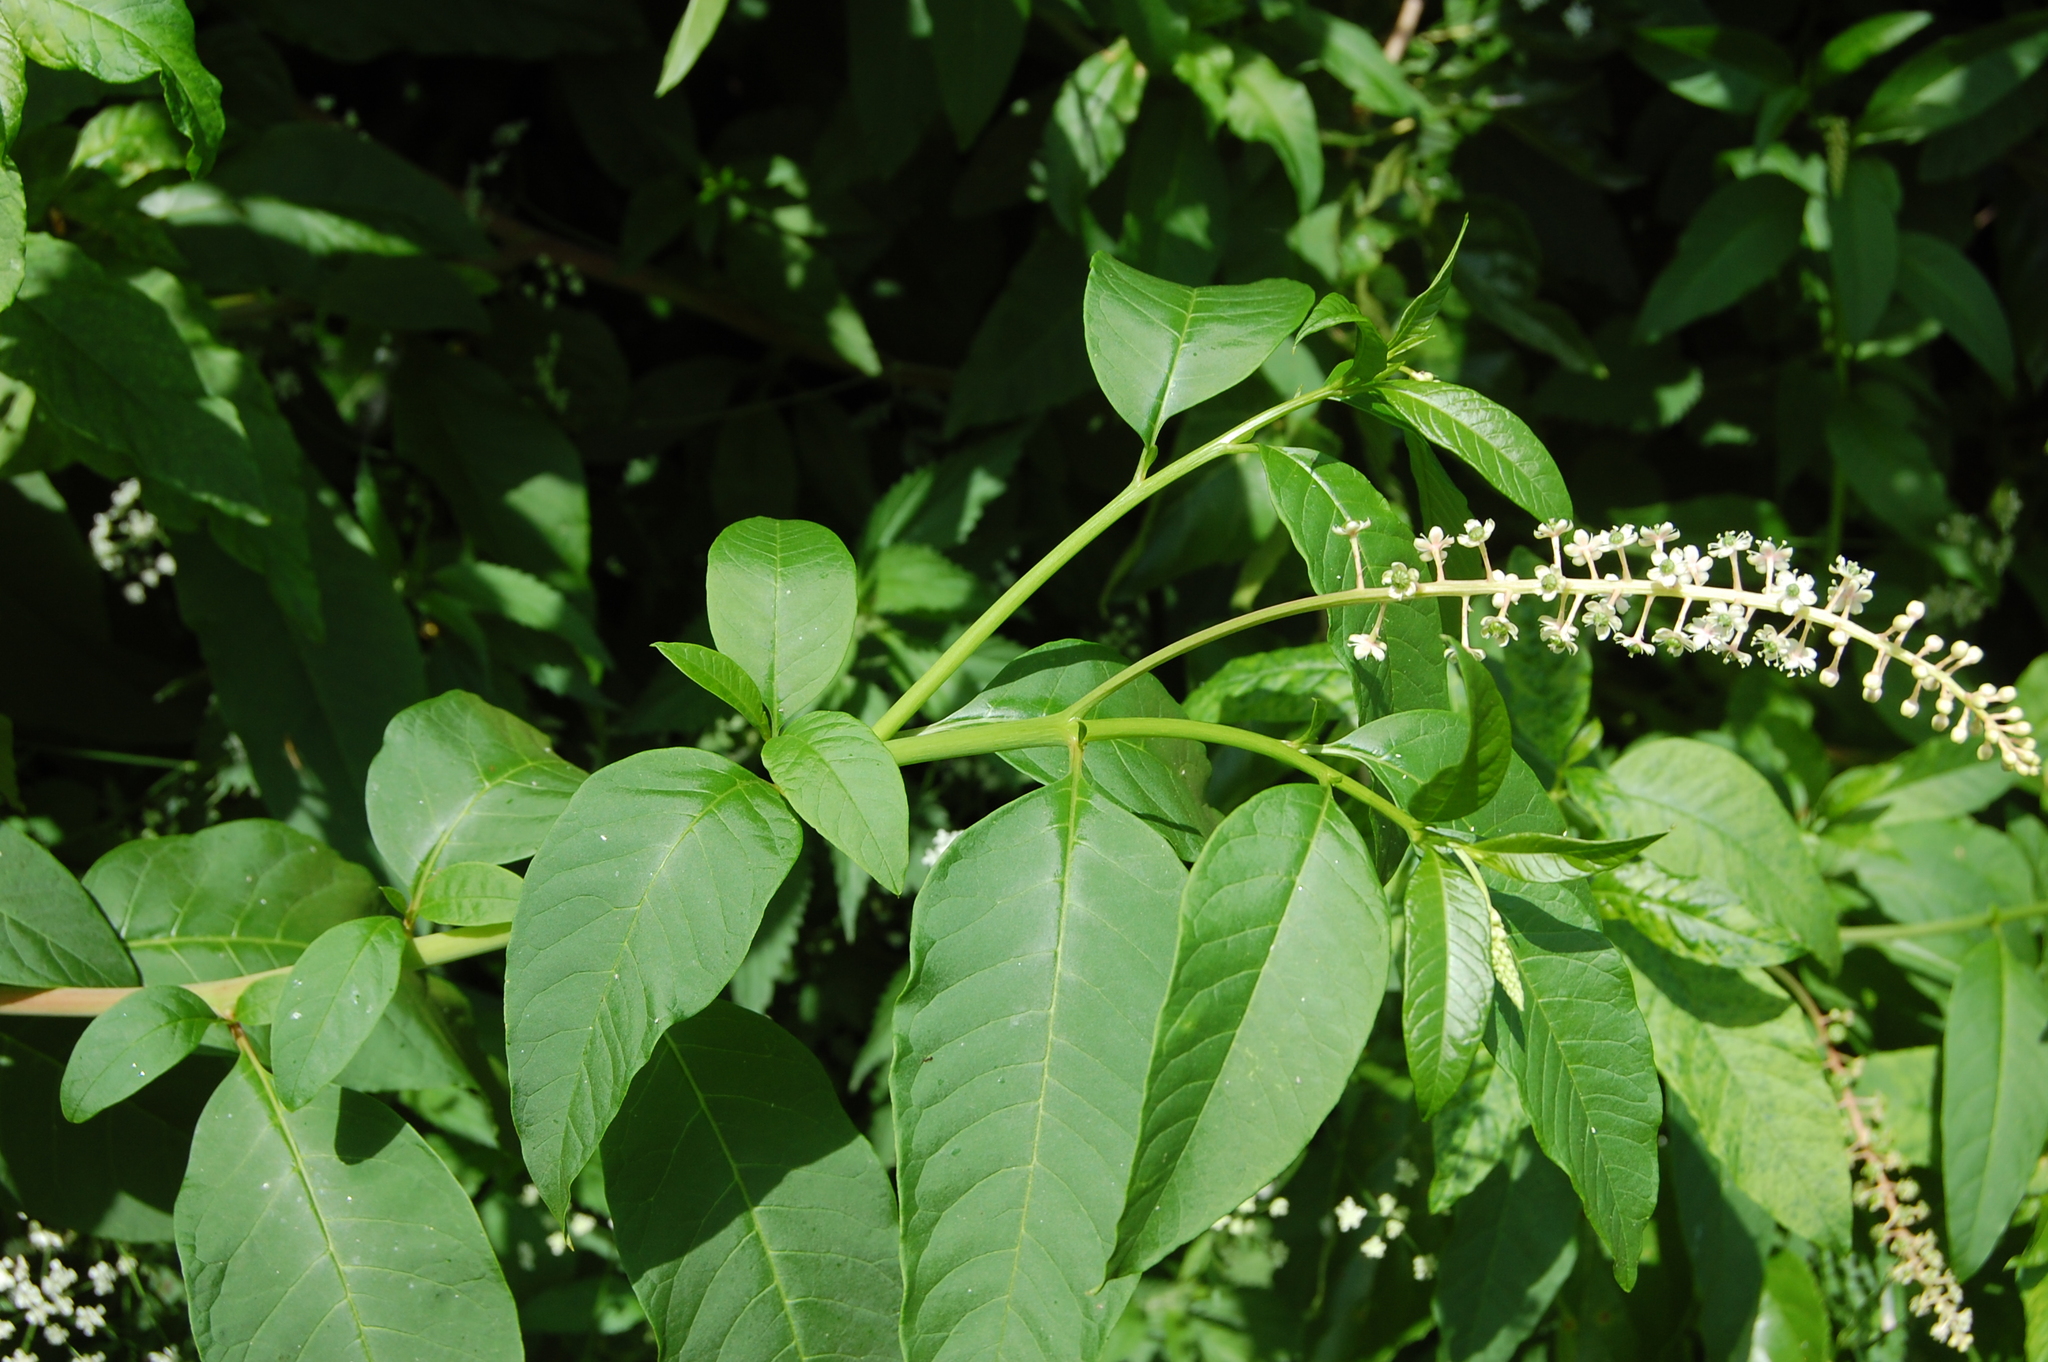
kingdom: Plantae
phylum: Tracheophyta
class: Magnoliopsida
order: Caryophyllales
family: Phytolaccaceae
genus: Phytolacca
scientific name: Phytolacca americana
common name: American pokeweed
